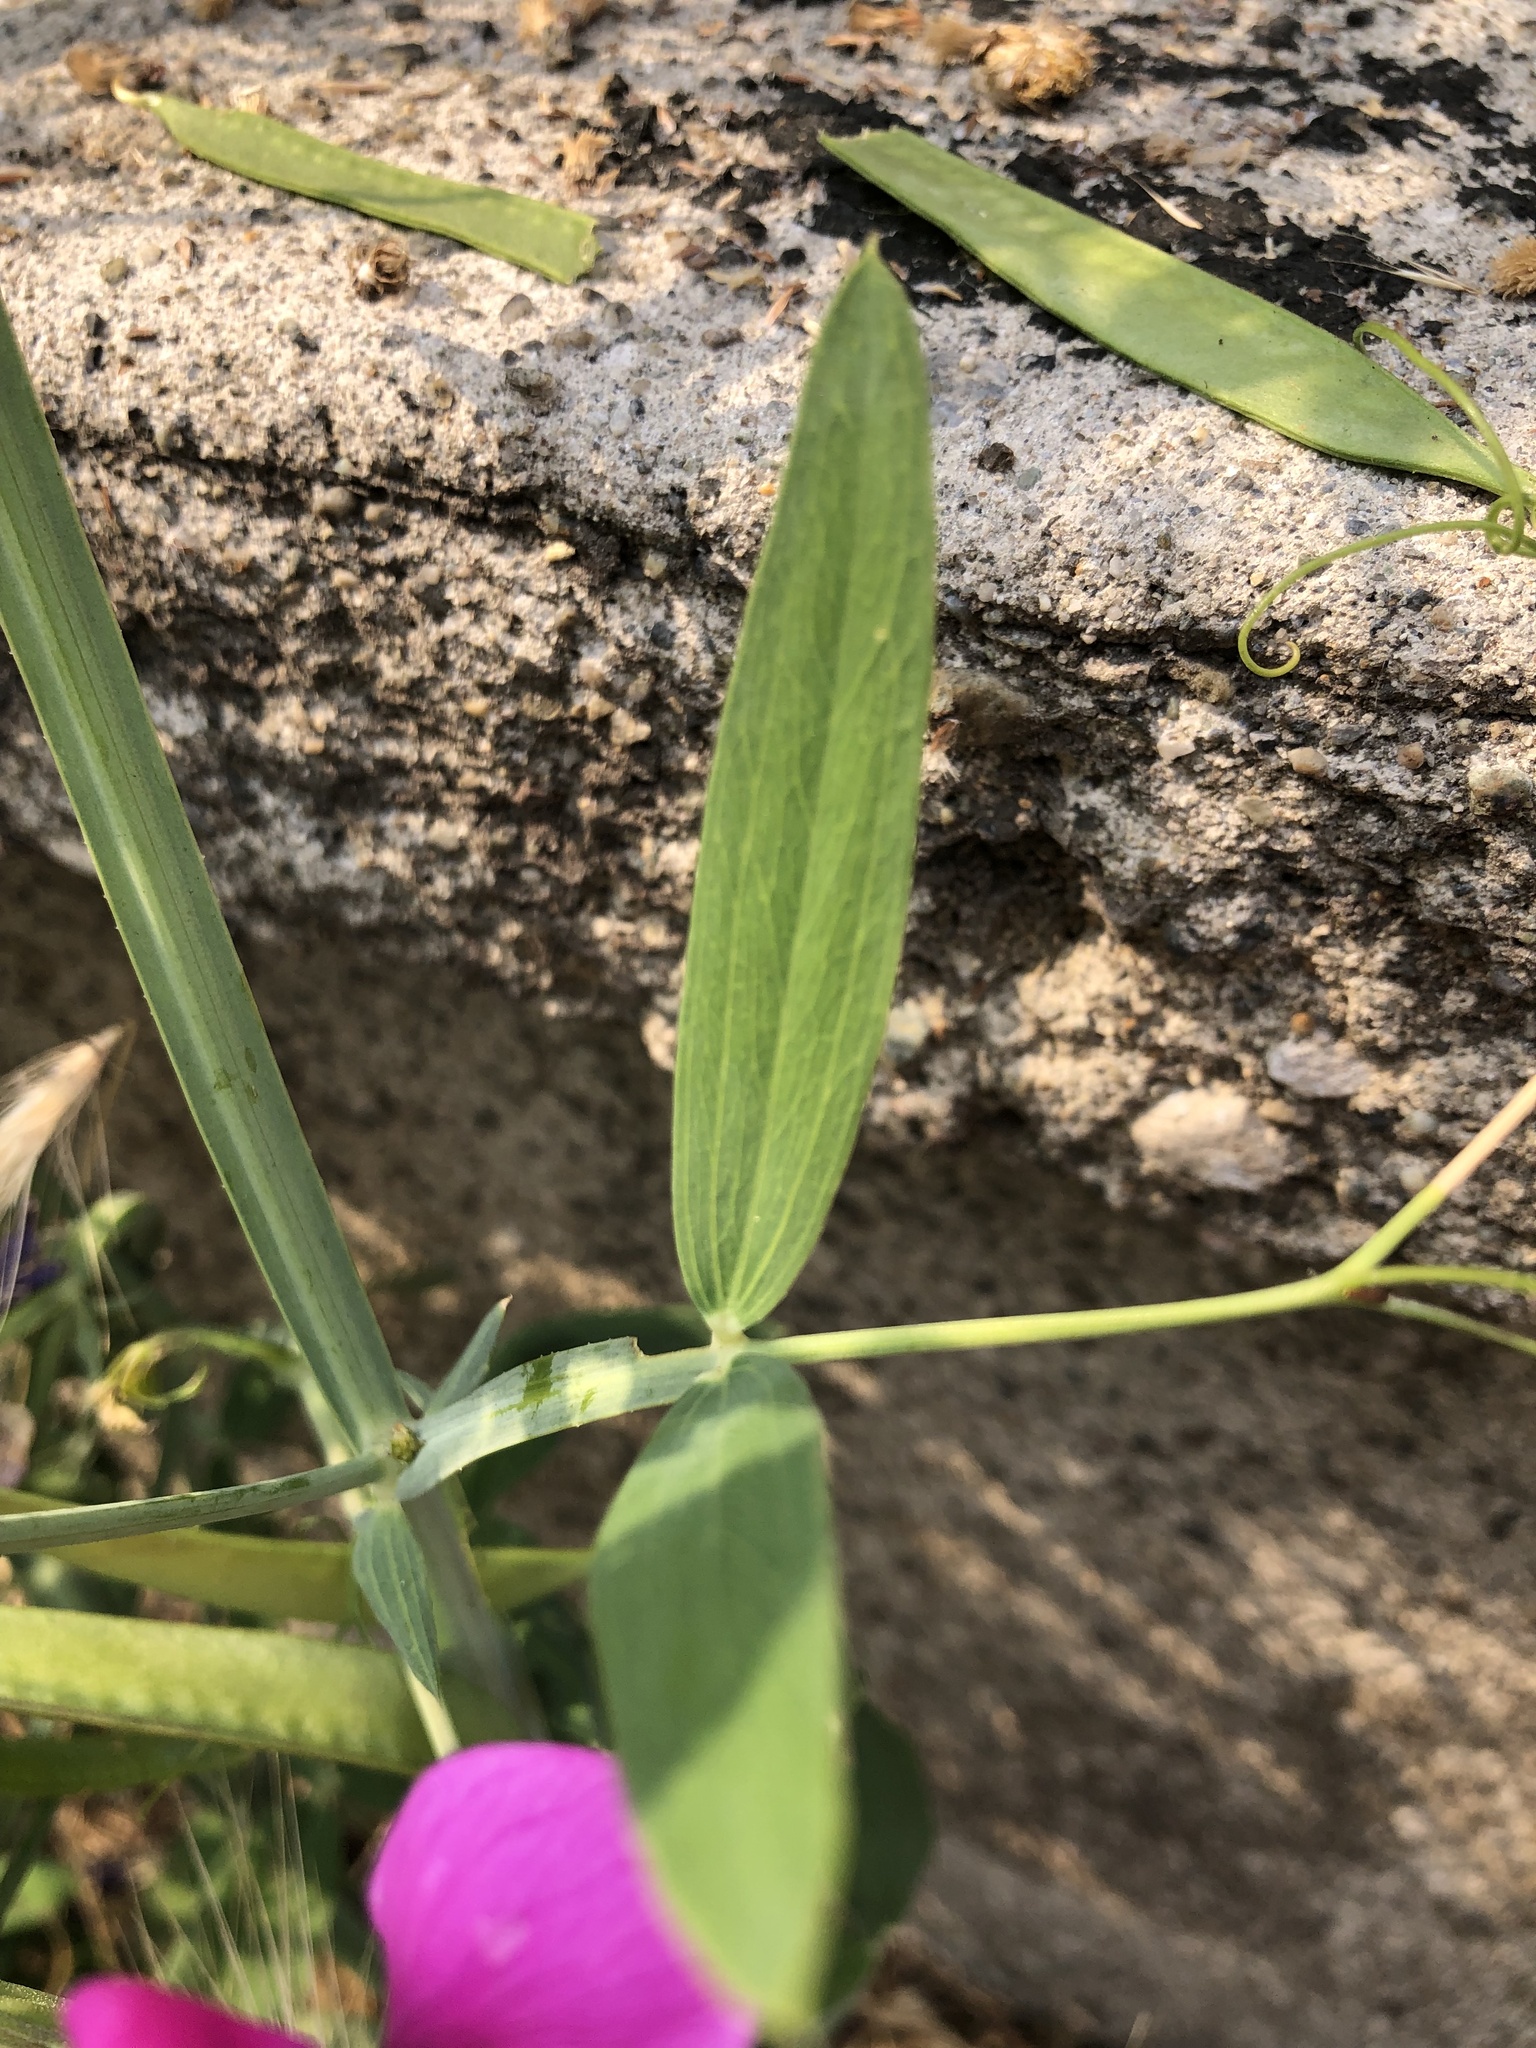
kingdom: Plantae
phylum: Tracheophyta
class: Magnoliopsida
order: Fabales
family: Fabaceae
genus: Lathyrus
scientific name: Lathyrus latifolius
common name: Perennial pea
